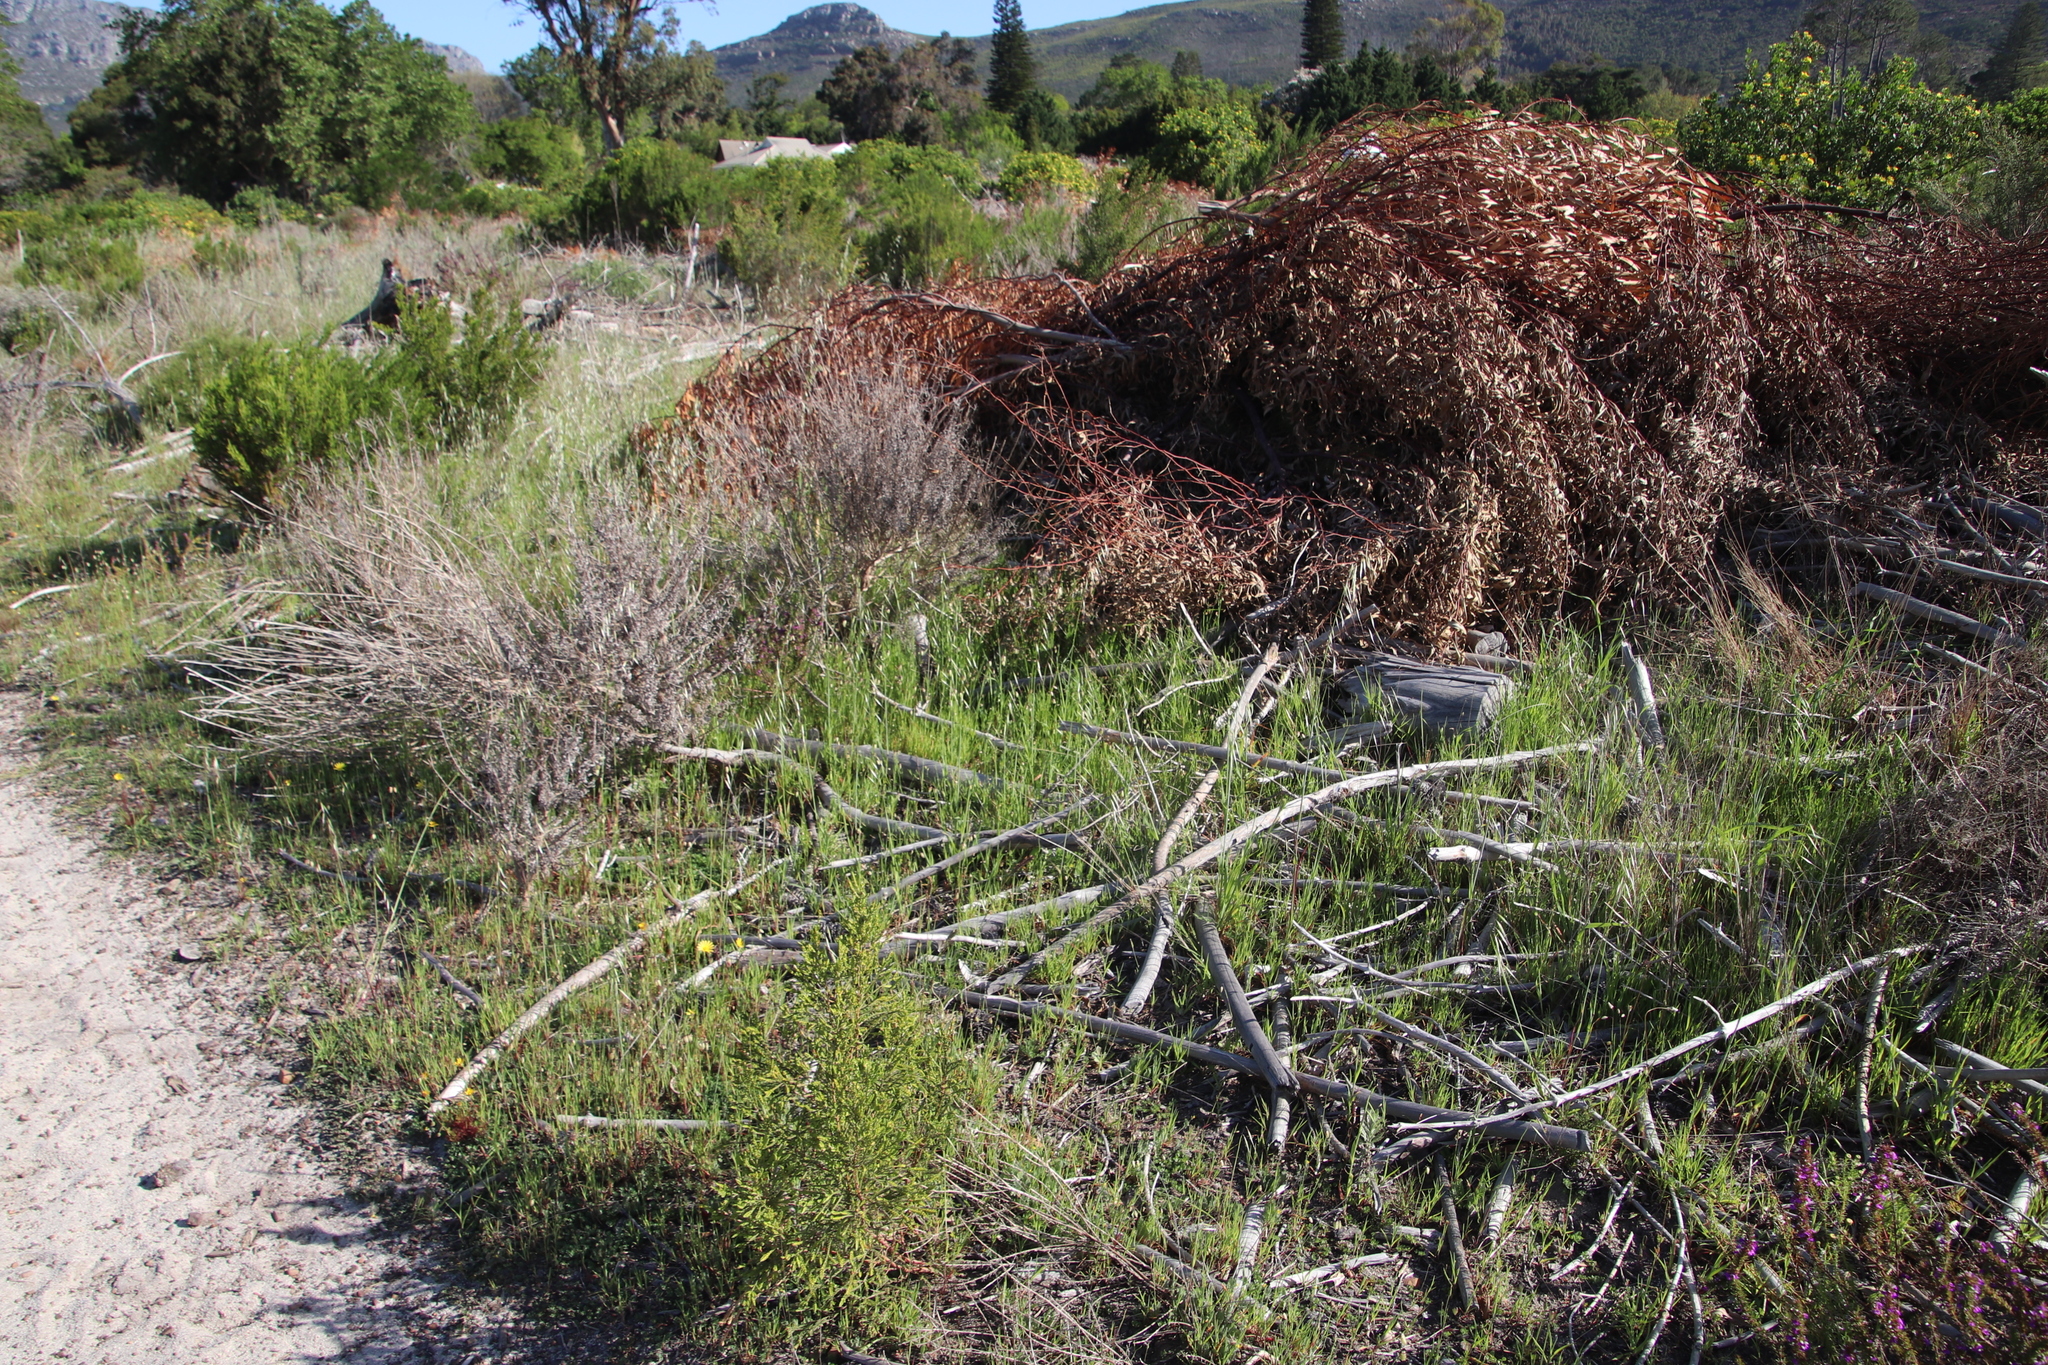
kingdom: Plantae
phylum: Tracheophyta
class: Liliopsida
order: Poales
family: Poaceae
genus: Briza
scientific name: Briza maxima
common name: Big quakinggrass
